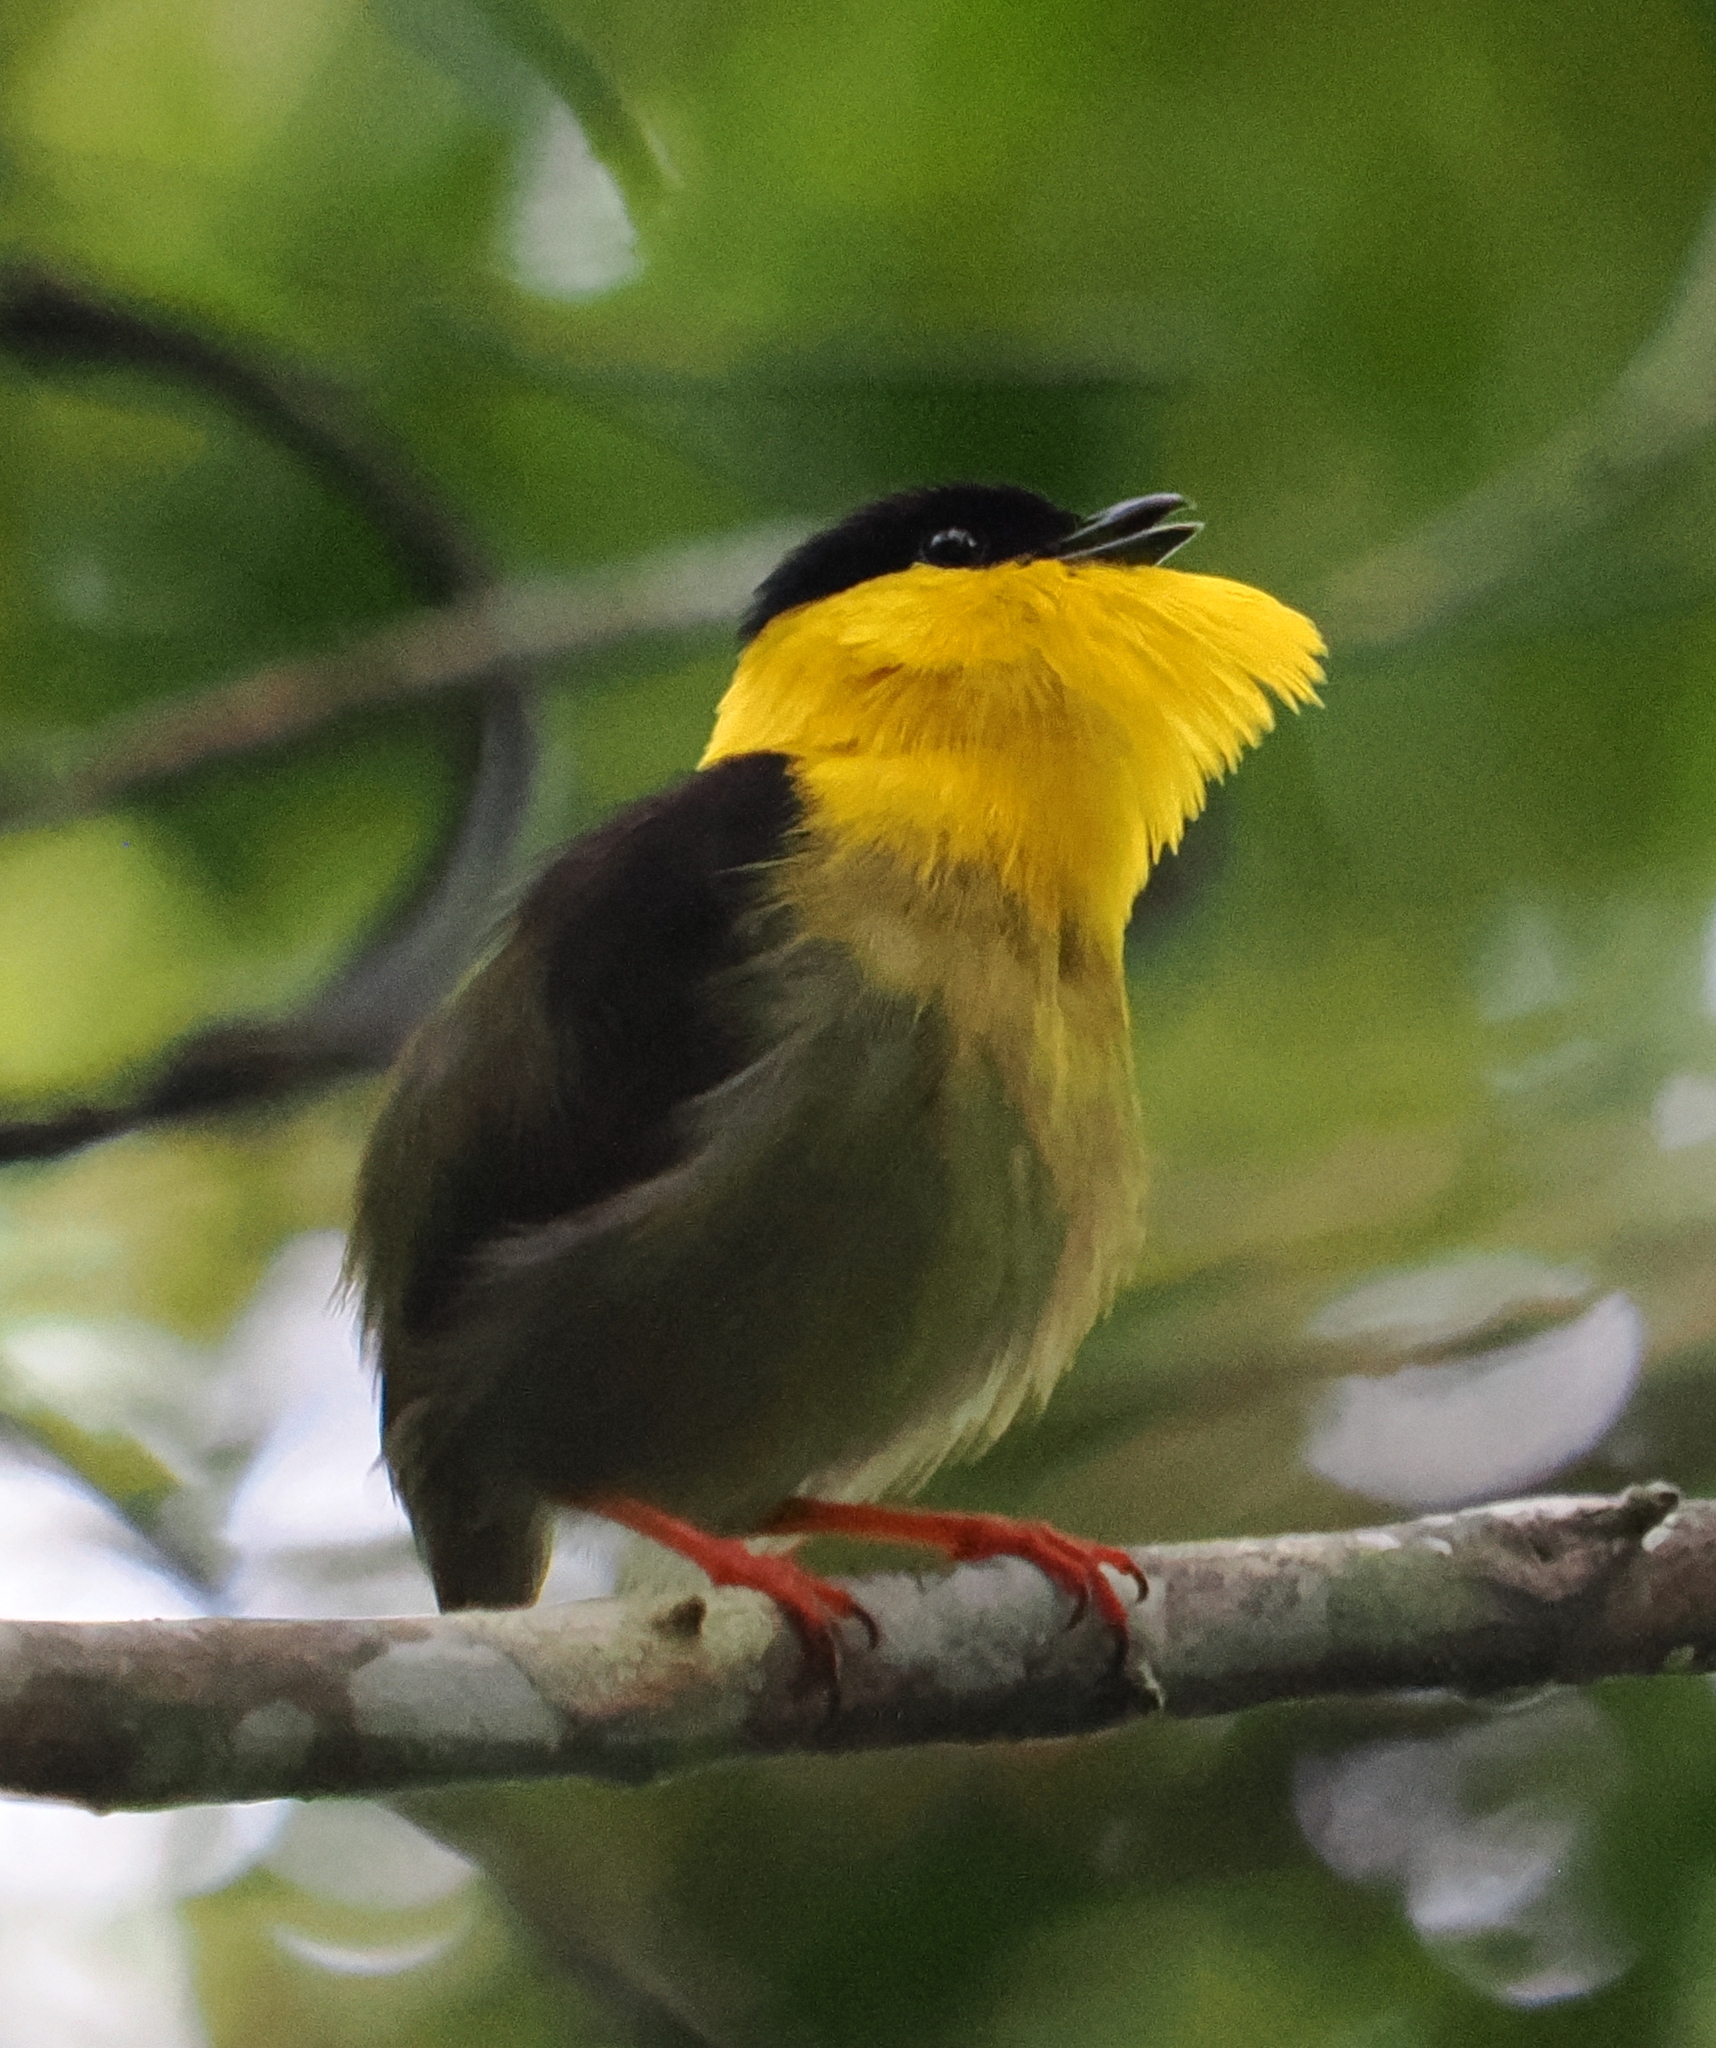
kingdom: Animalia
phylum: Chordata
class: Aves
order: Passeriformes
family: Pipridae
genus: Manacus
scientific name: Manacus vitellinus
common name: Golden-collared manakin
